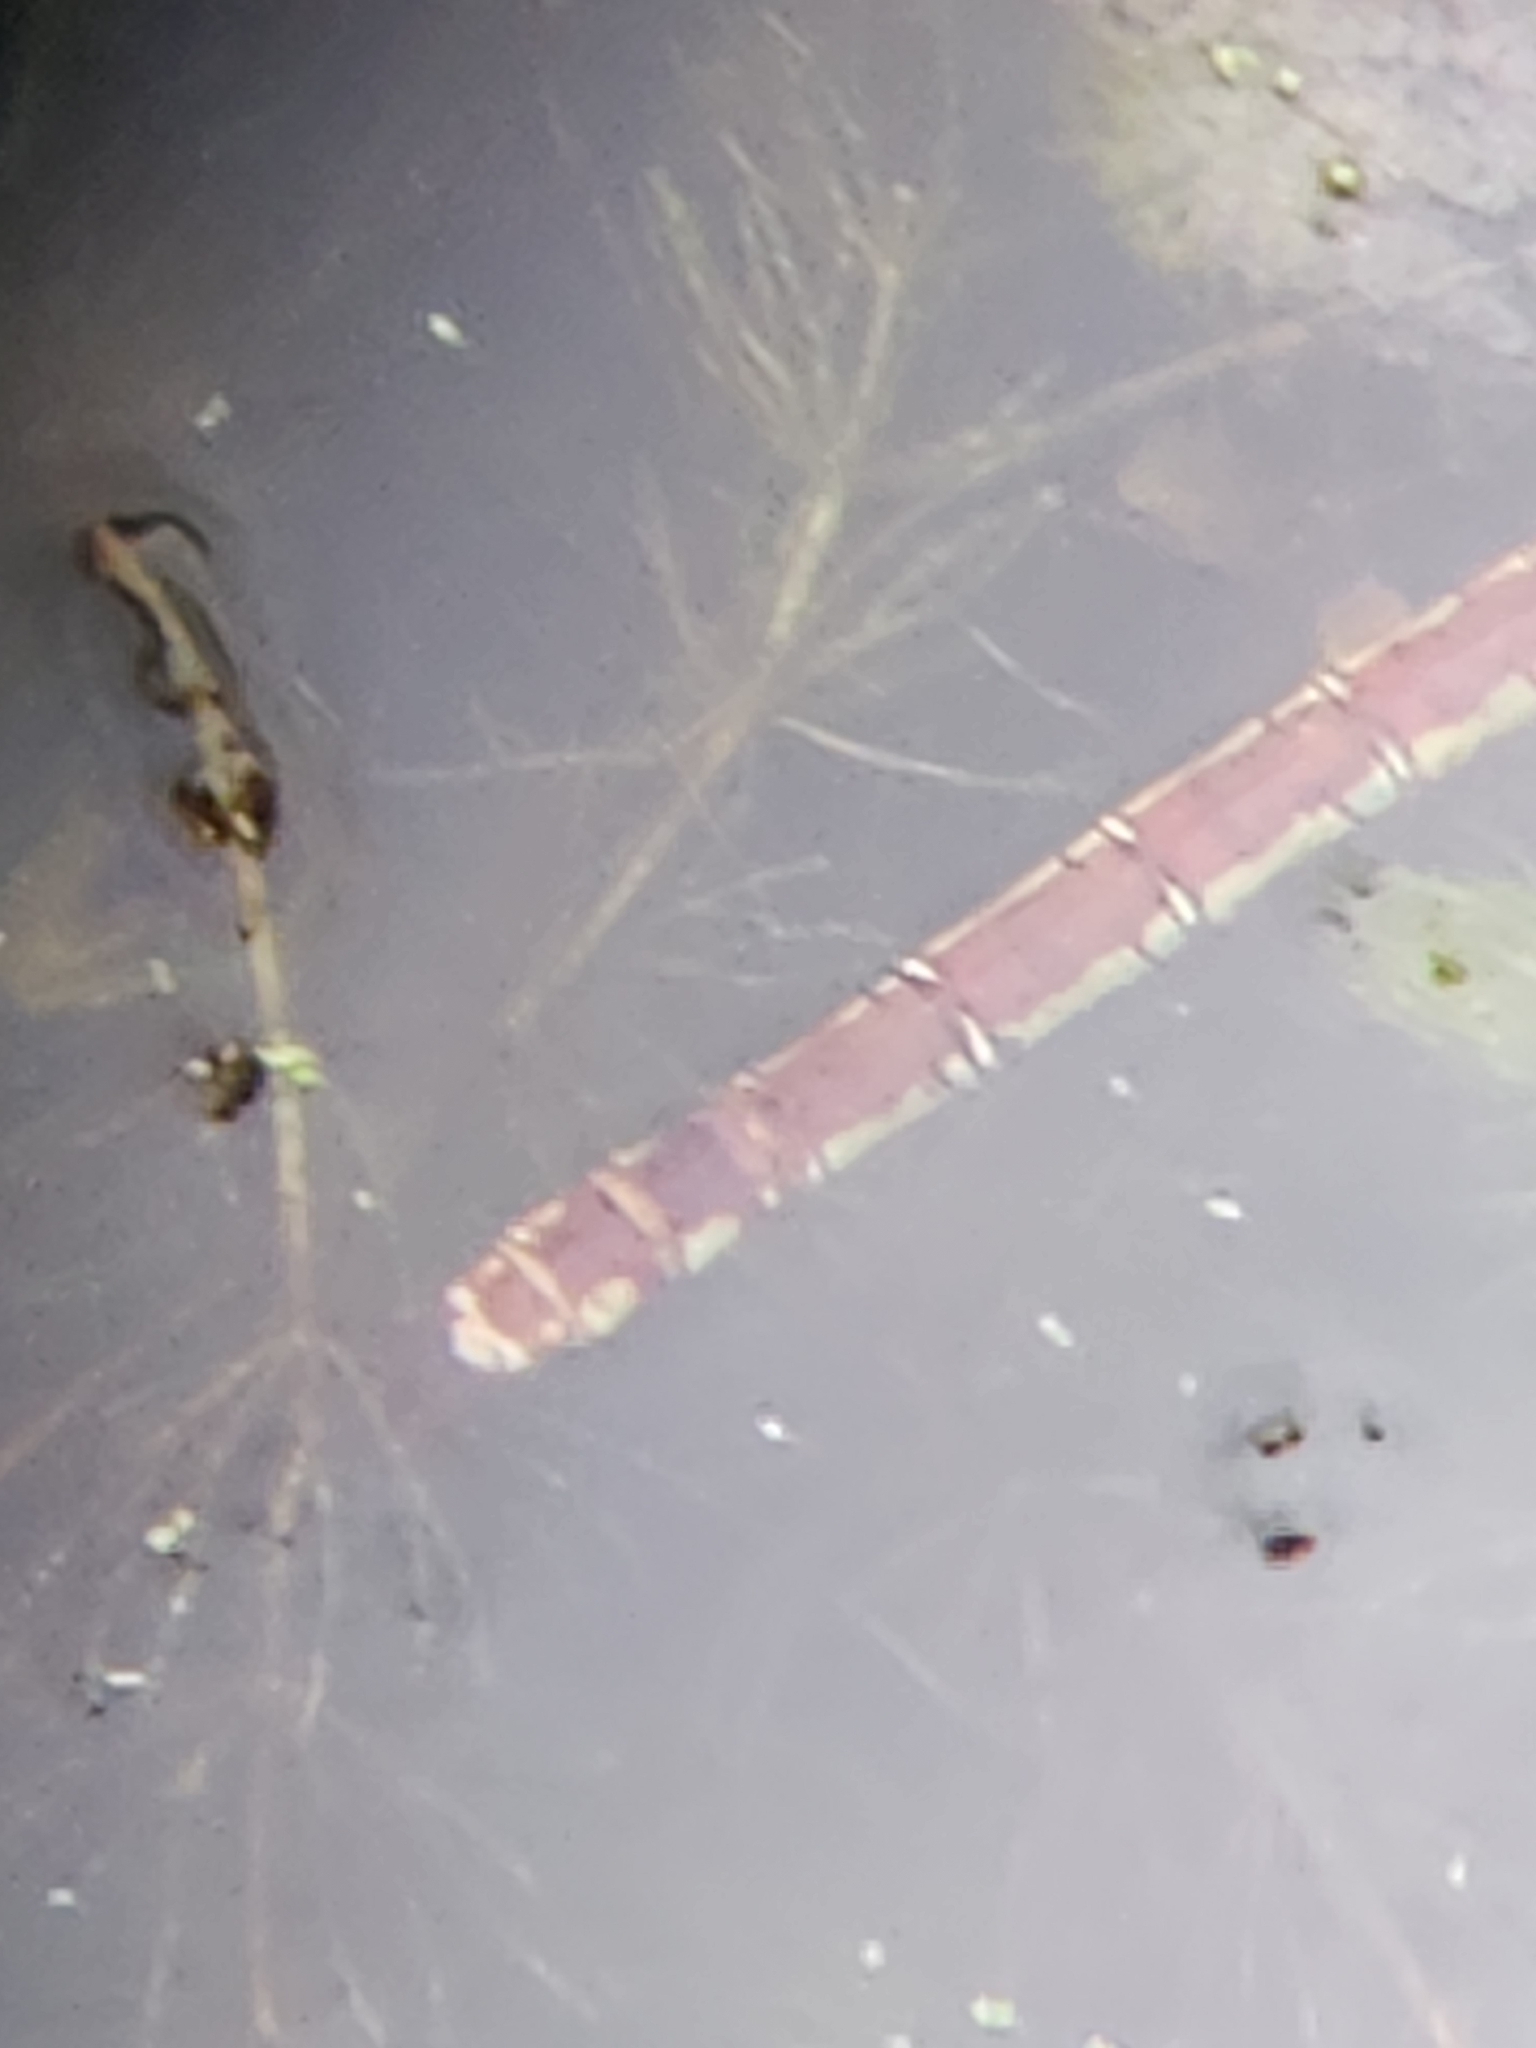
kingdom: Animalia
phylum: Arthropoda
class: Insecta
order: Odonata
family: Aeshnidae
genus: Anax
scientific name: Anax junius
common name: Common green darner
